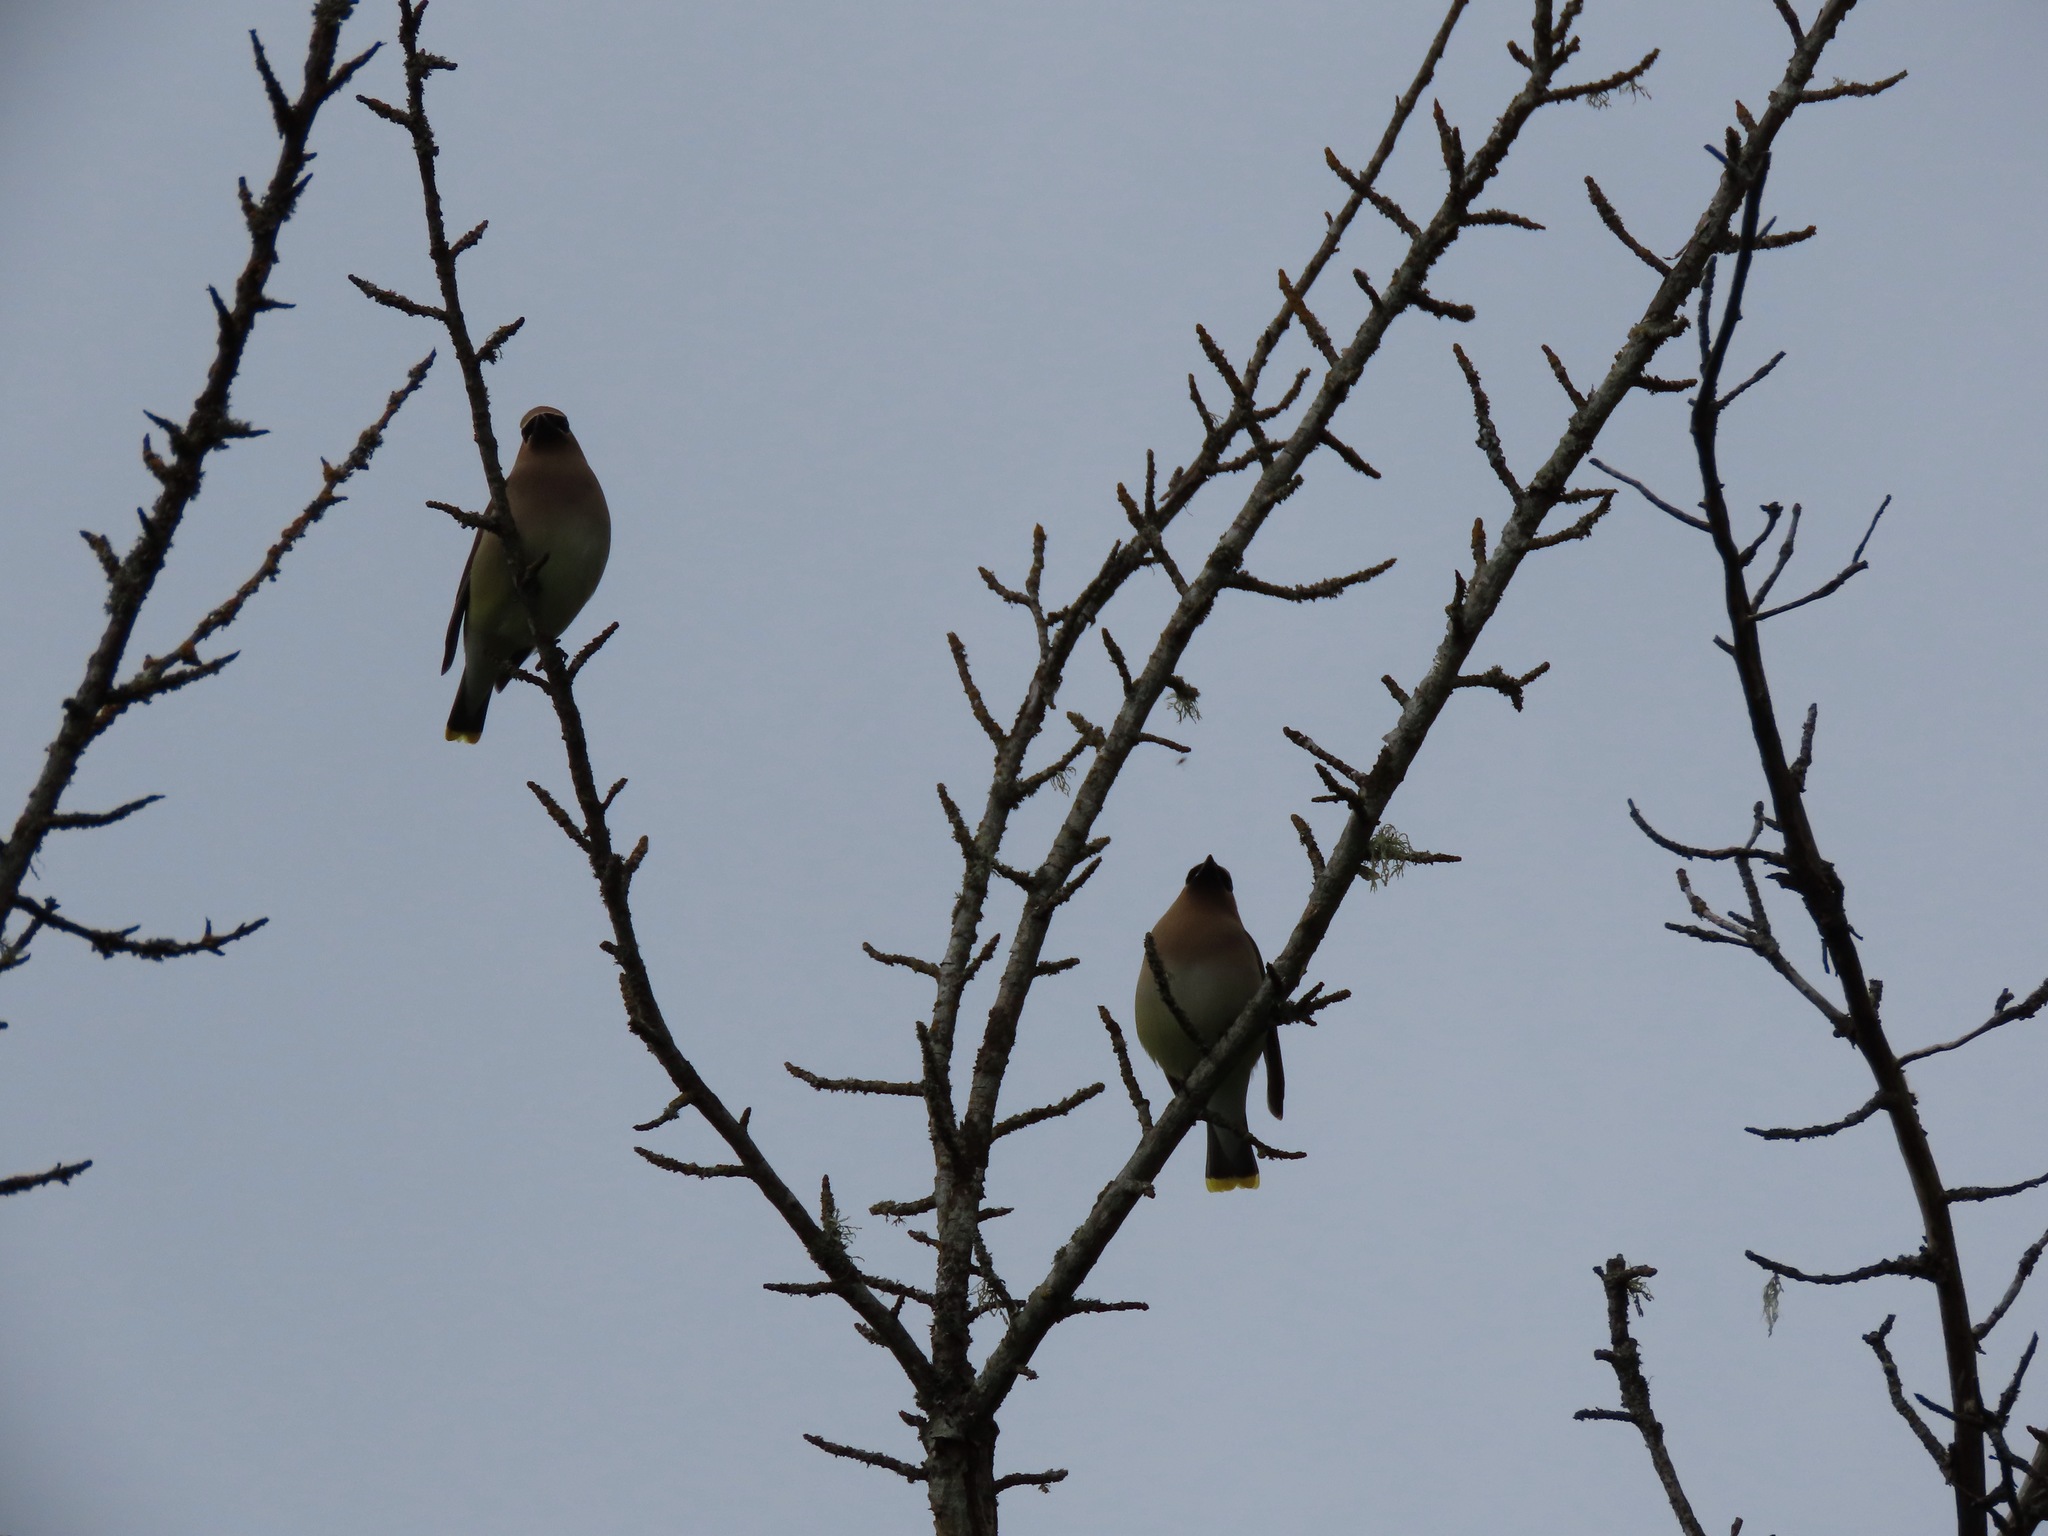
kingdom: Animalia
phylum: Chordata
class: Aves
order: Passeriformes
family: Bombycillidae
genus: Bombycilla
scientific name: Bombycilla cedrorum
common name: Cedar waxwing
